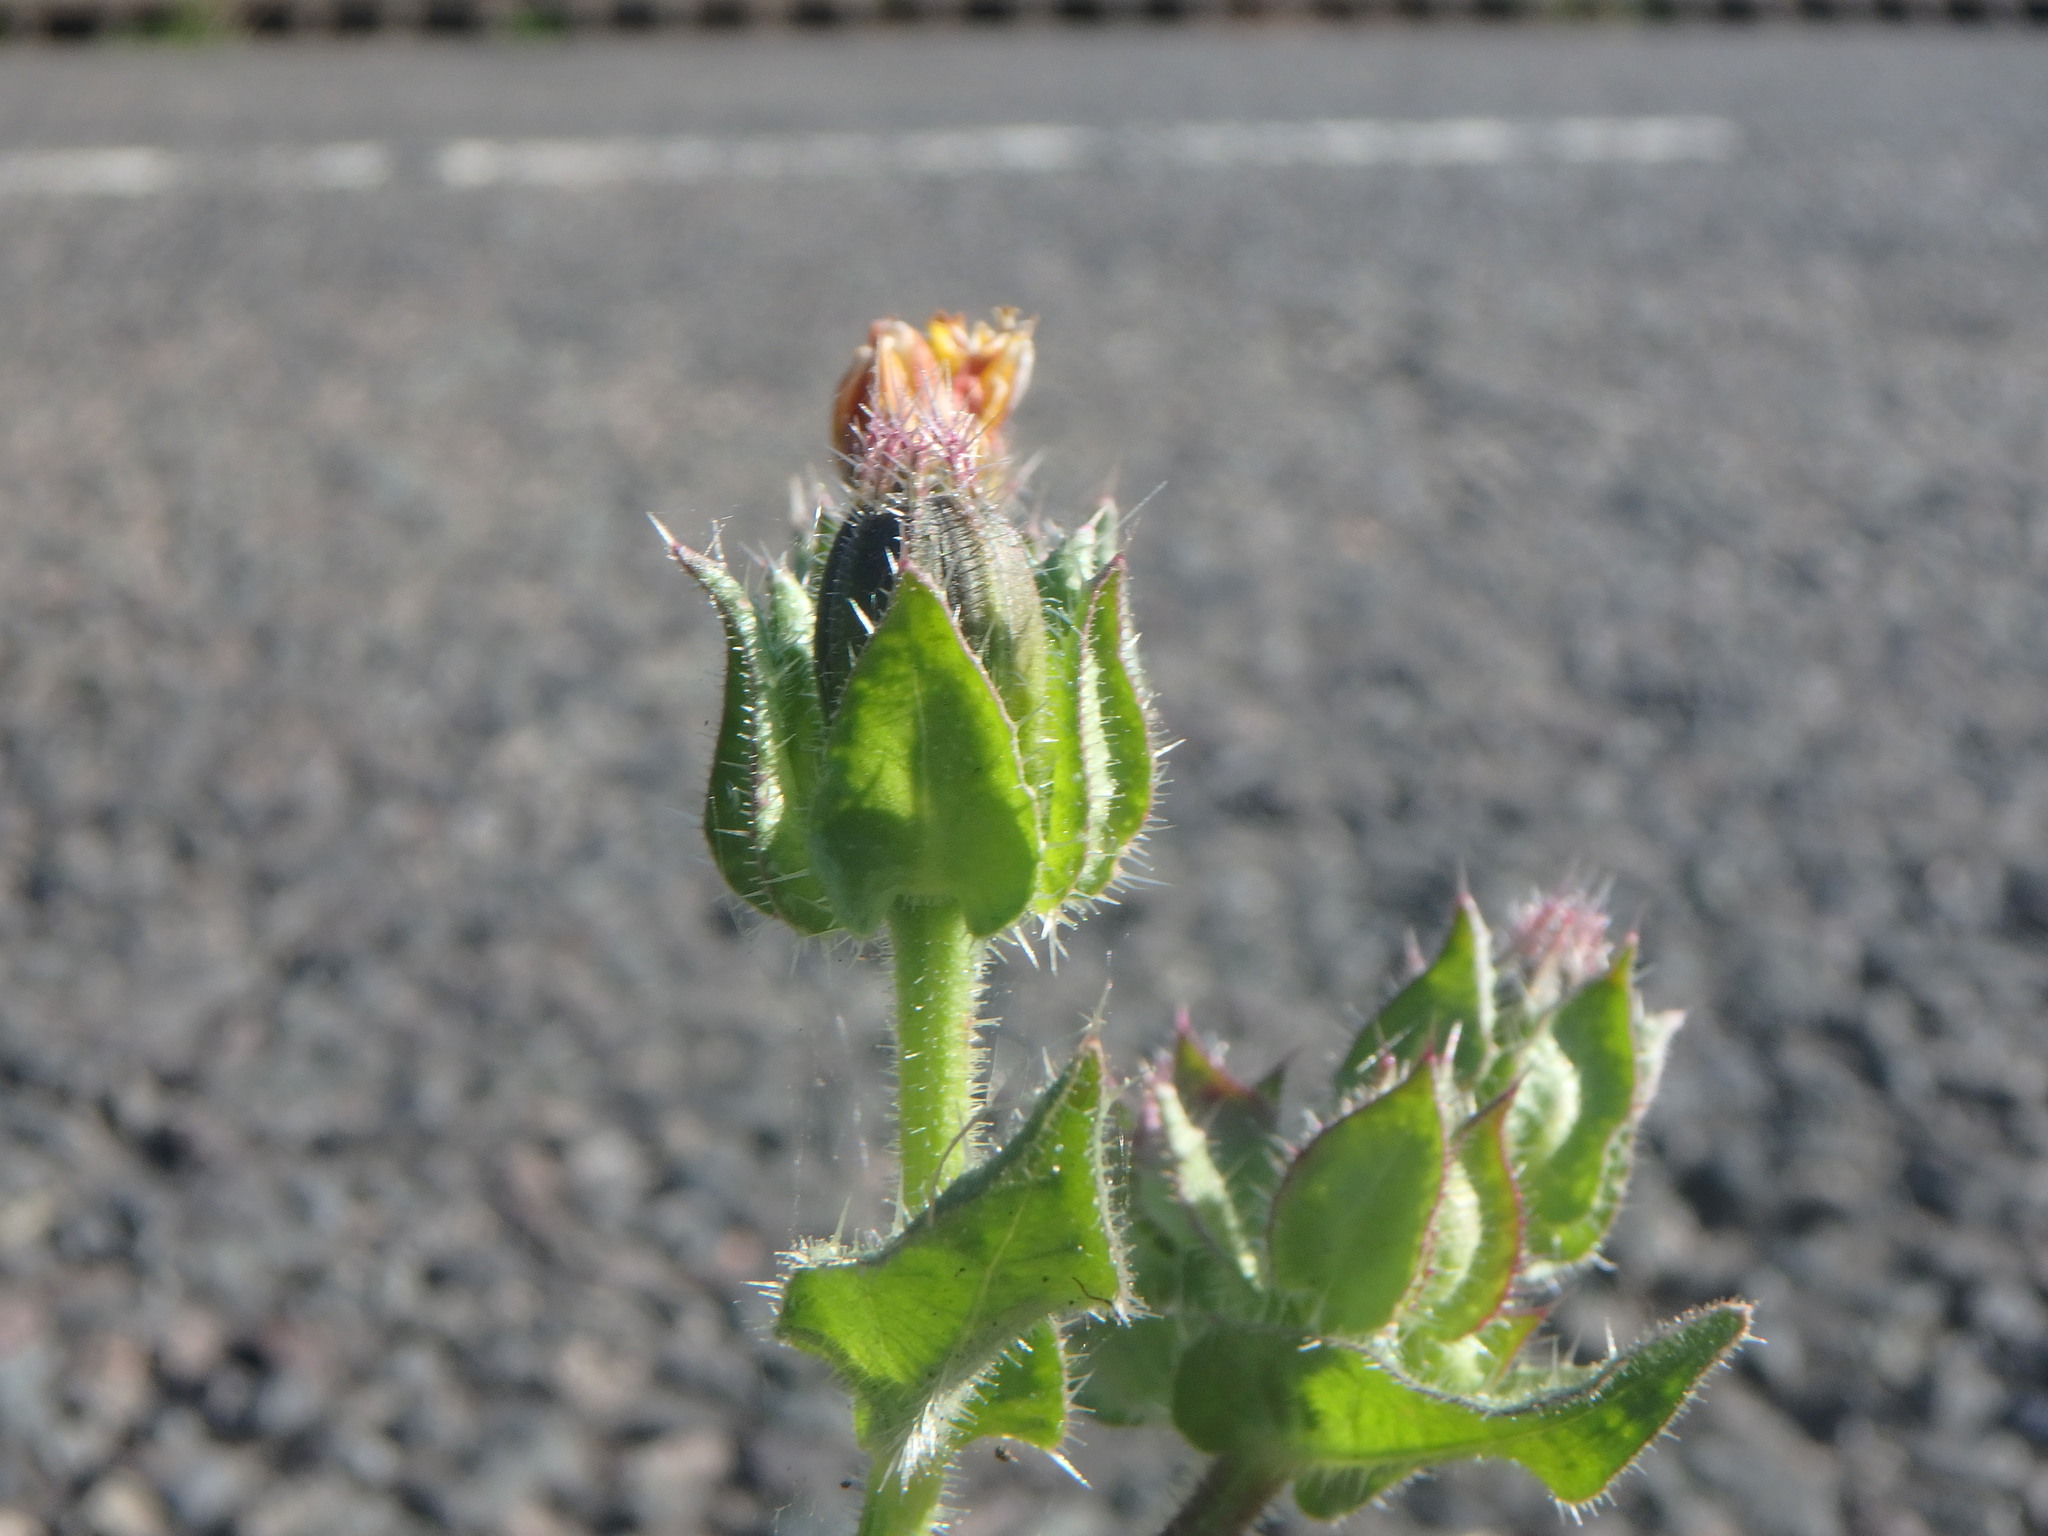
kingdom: Plantae
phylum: Tracheophyta
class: Magnoliopsida
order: Asterales
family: Asteraceae
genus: Helminthotheca
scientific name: Helminthotheca echioides
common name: Ox-tongue
